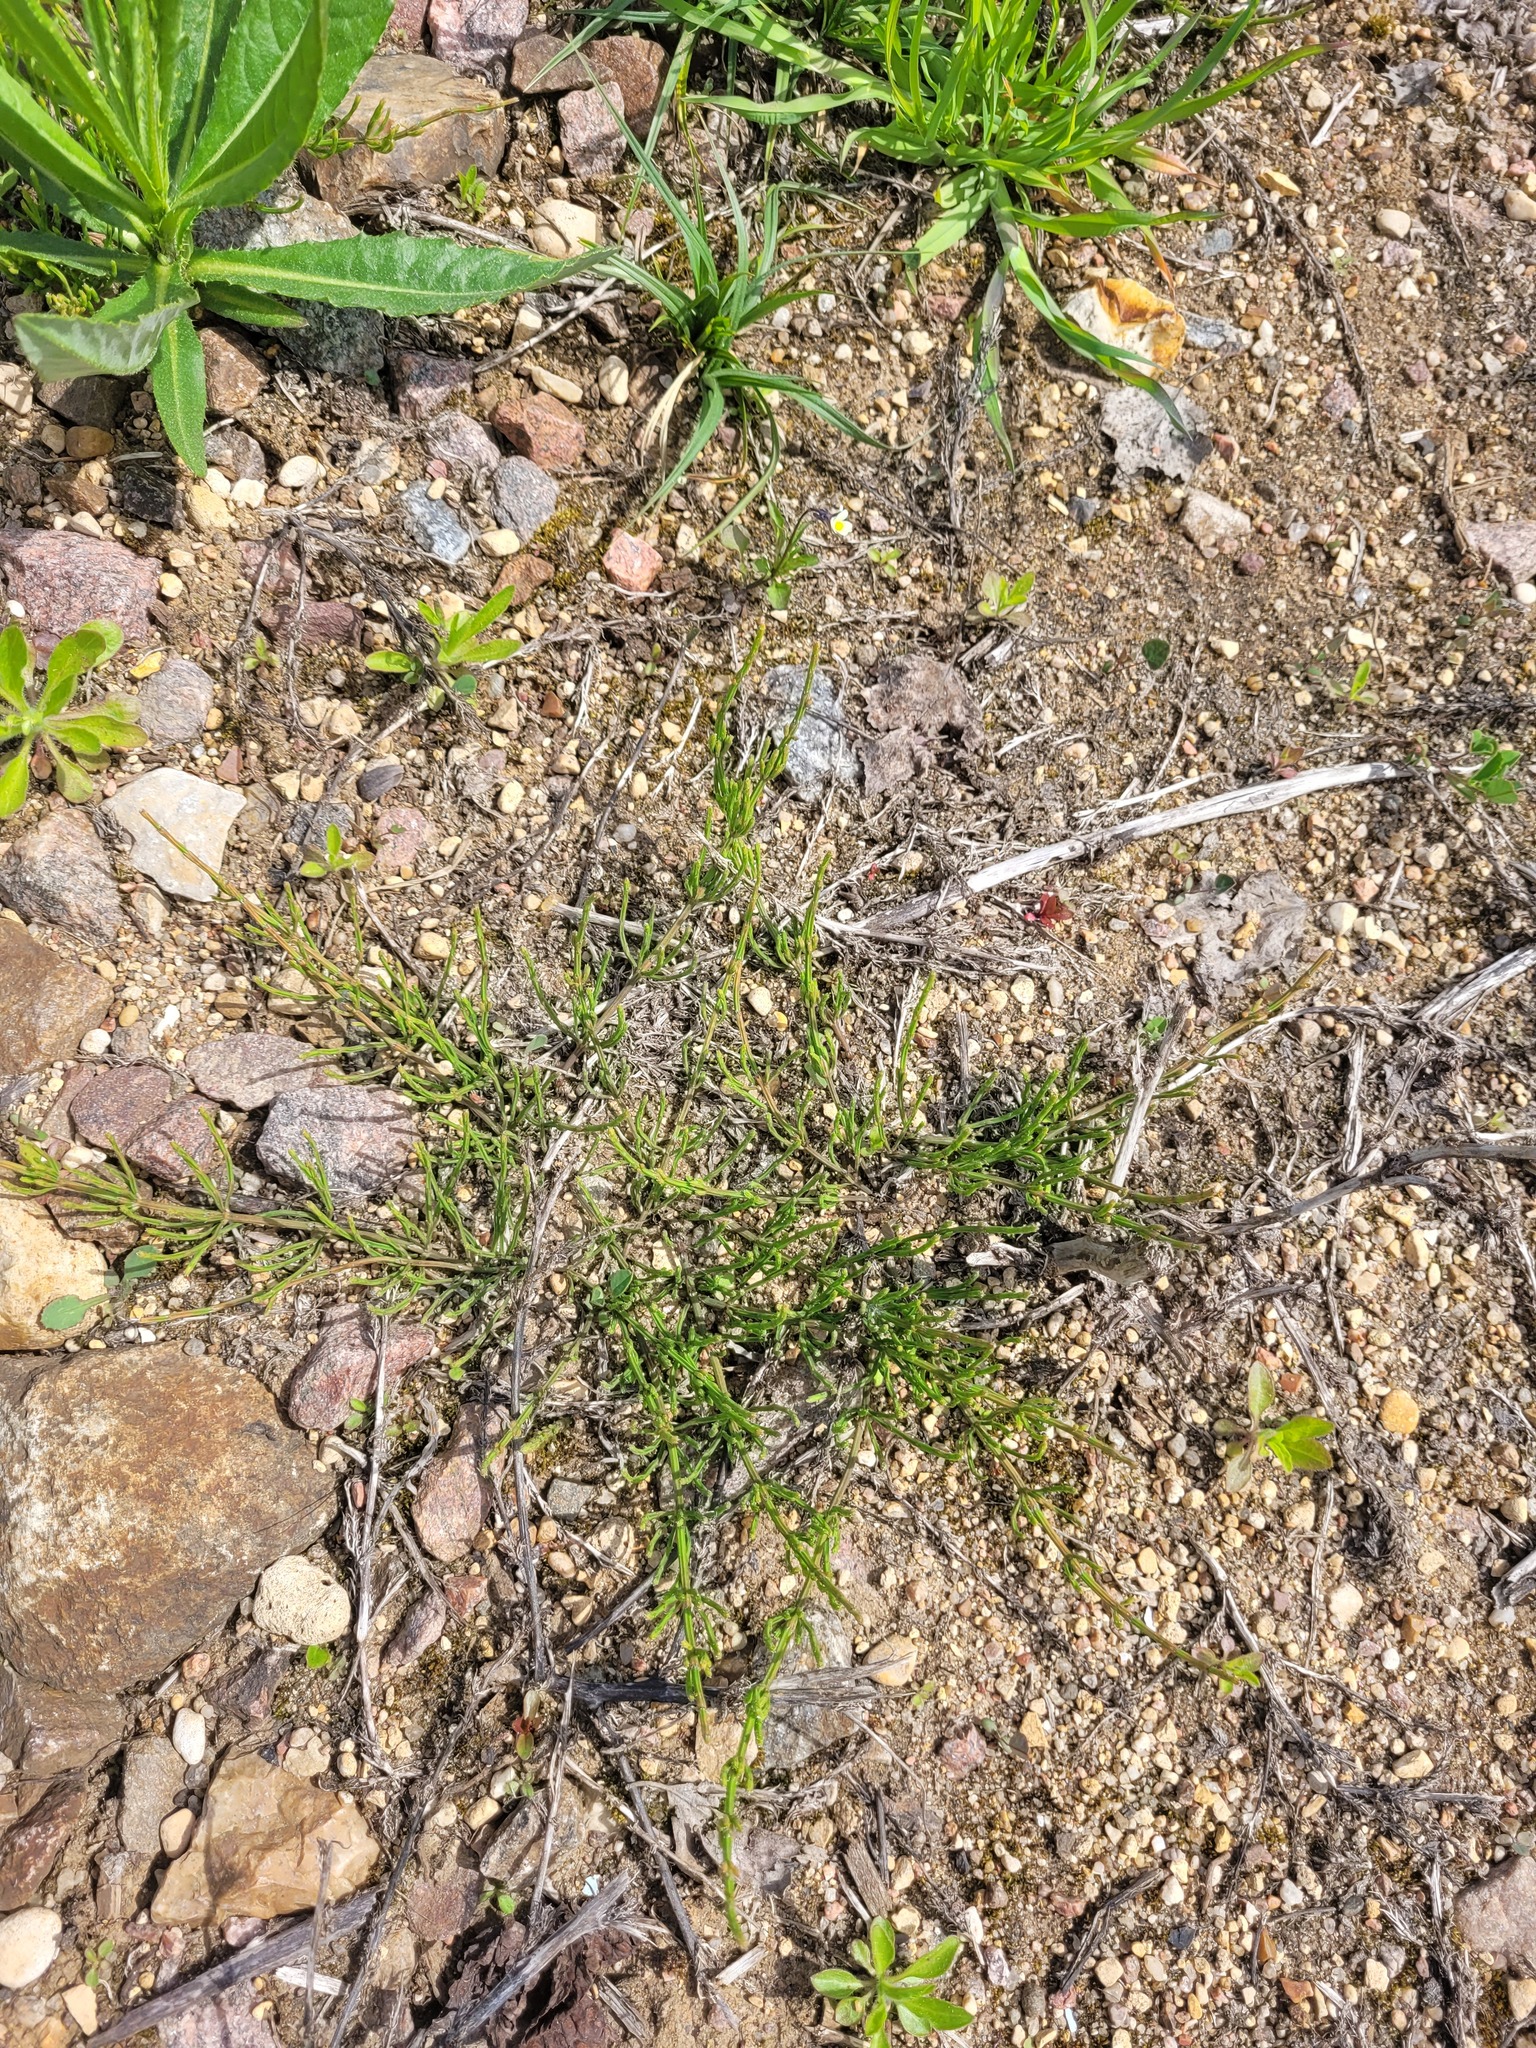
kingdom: Plantae
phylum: Tracheophyta
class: Polypodiopsida
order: Equisetales
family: Equisetaceae
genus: Equisetum
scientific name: Equisetum arvense
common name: Field horsetail
